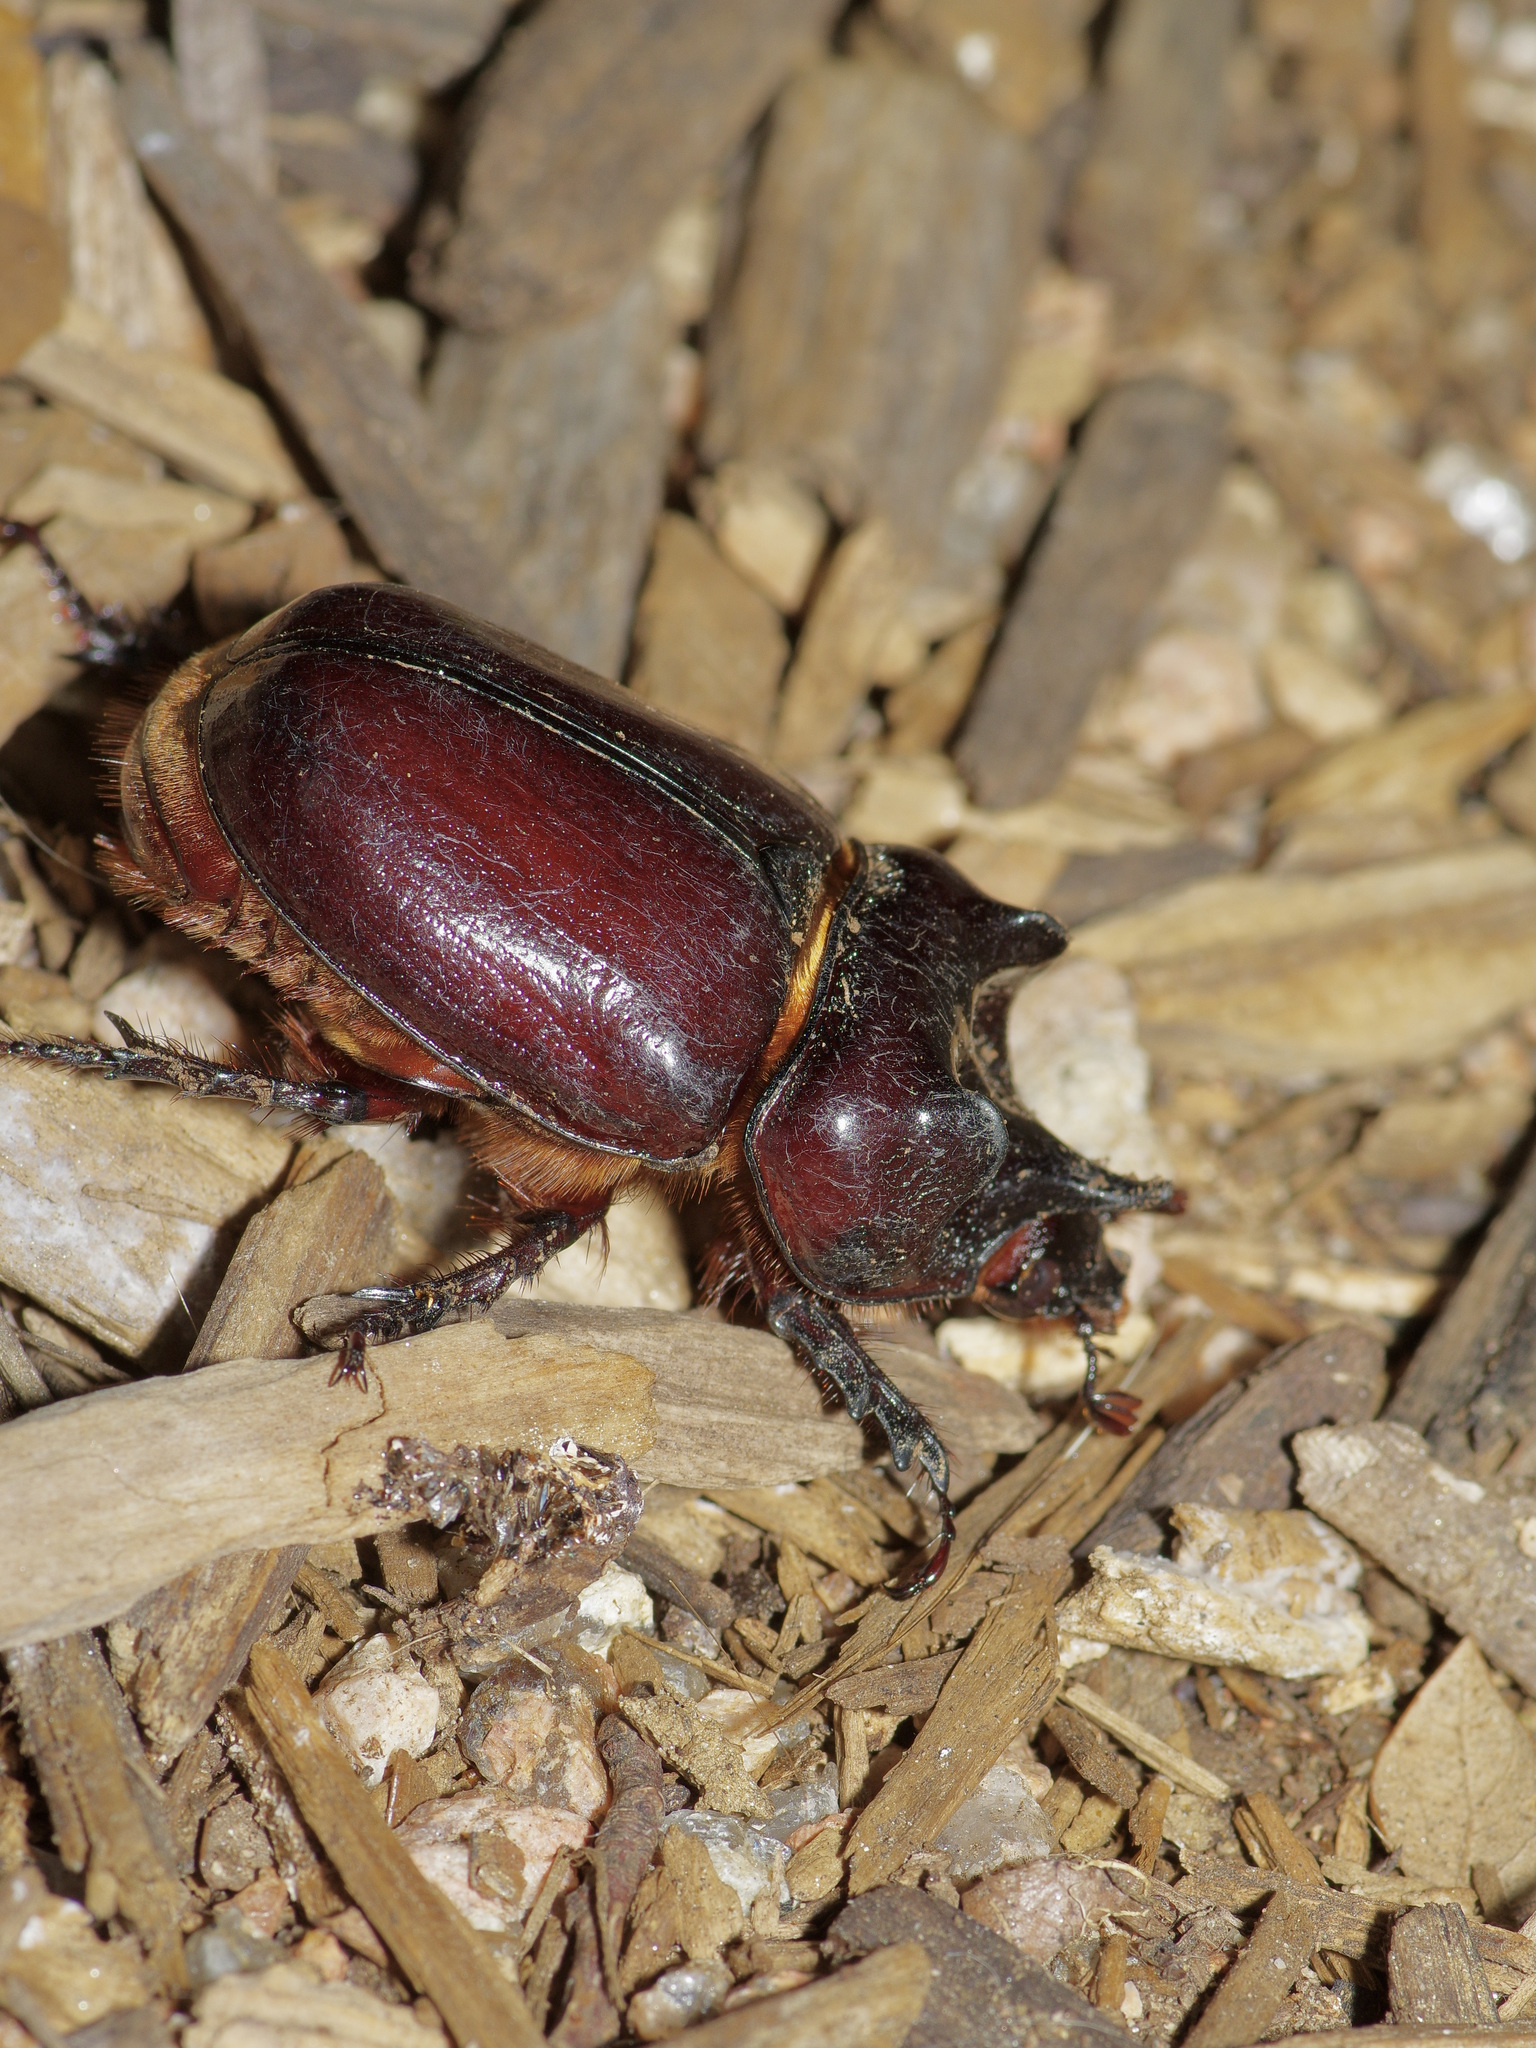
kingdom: Animalia
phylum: Arthropoda
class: Insecta
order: Coleoptera
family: Scarabaeidae
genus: Strategus
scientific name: Strategus aloeus
